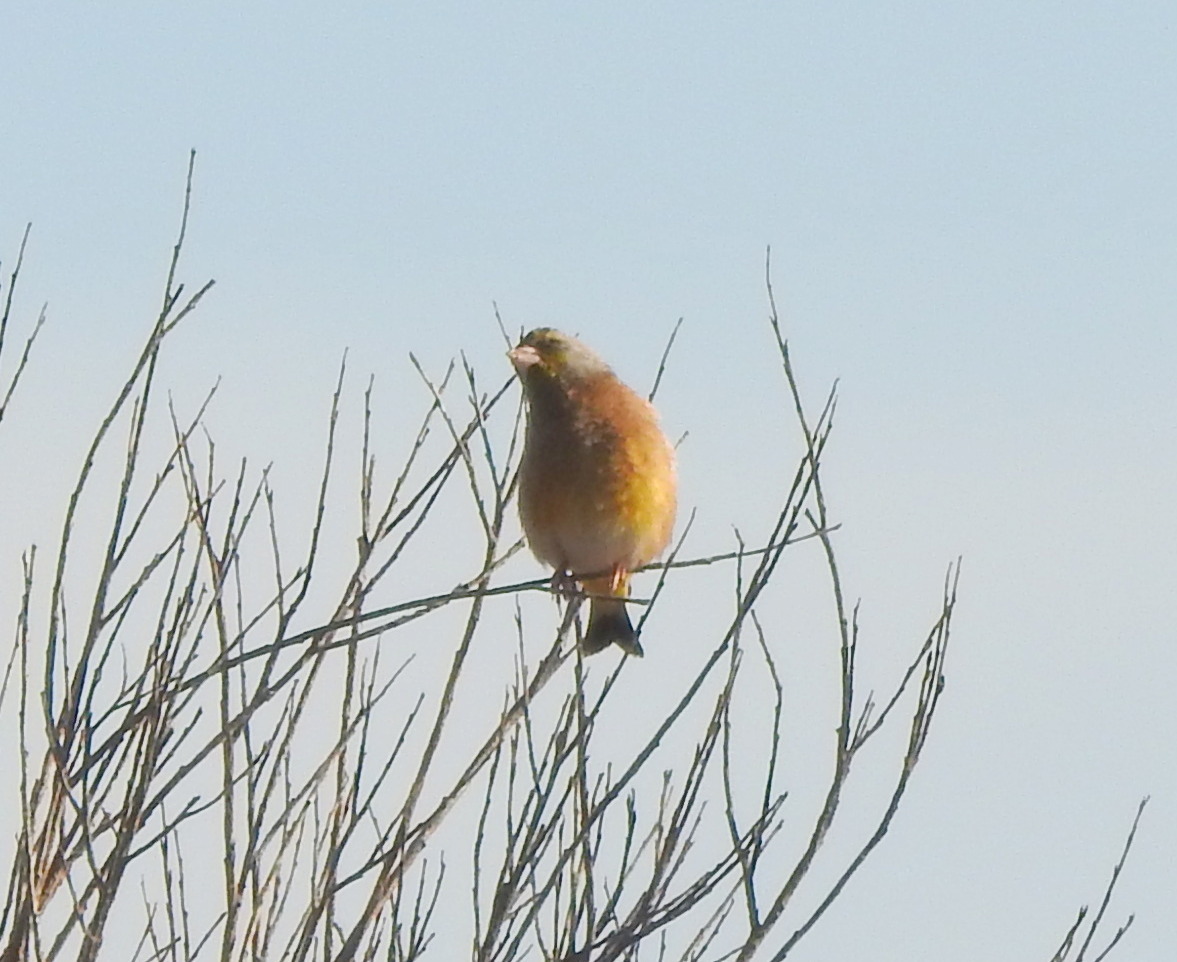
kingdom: Plantae
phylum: Tracheophyta
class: Liliopsida
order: Poales
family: Poaceae
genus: Chloris
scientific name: Chloris sinica
